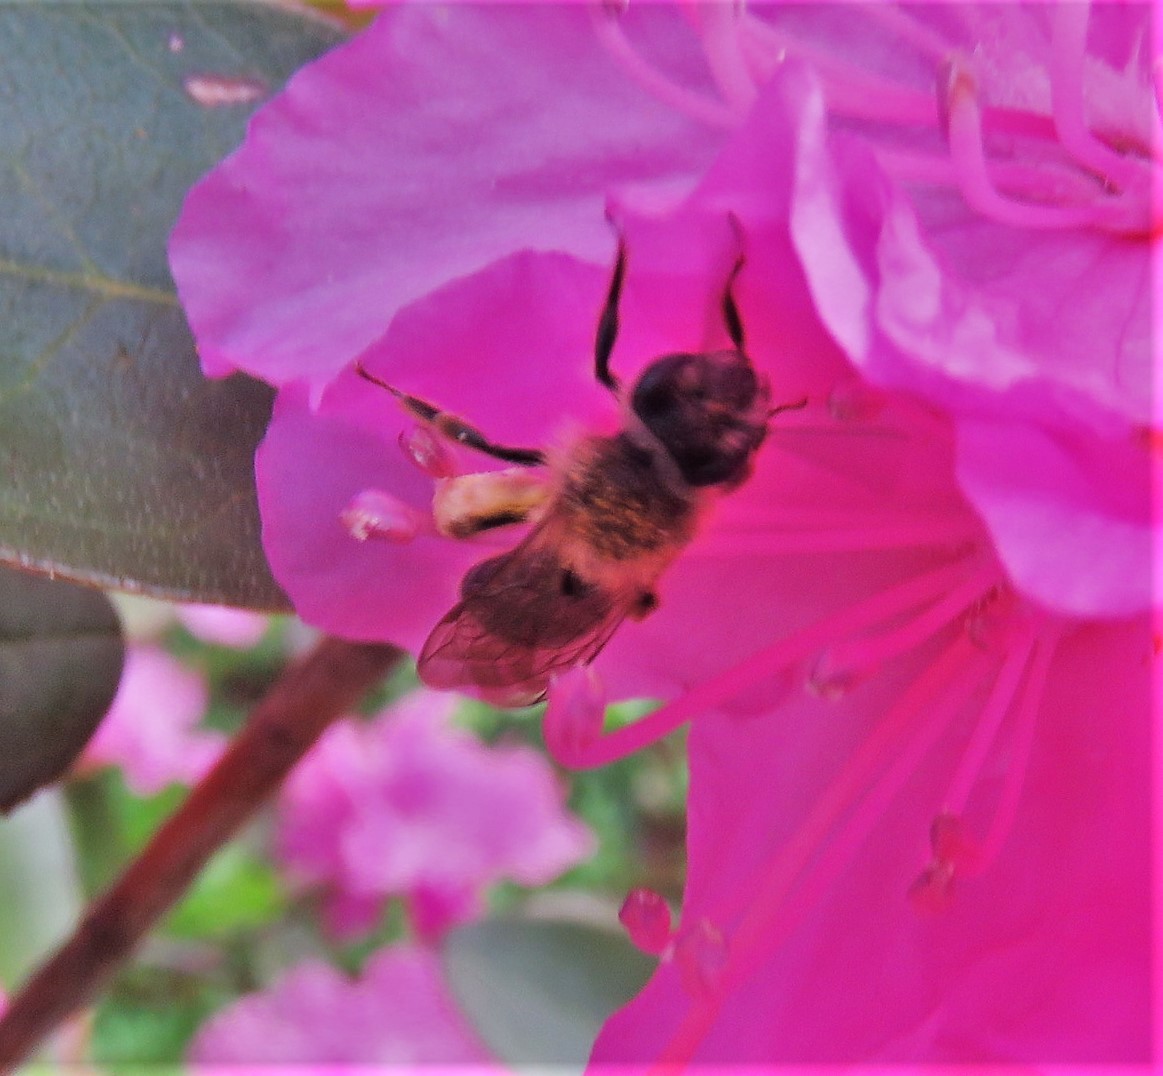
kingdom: Animalia
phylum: Arthropoda
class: Insecta
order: Hymenoptera
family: Andrenidae
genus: Andrena
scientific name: Andrena
